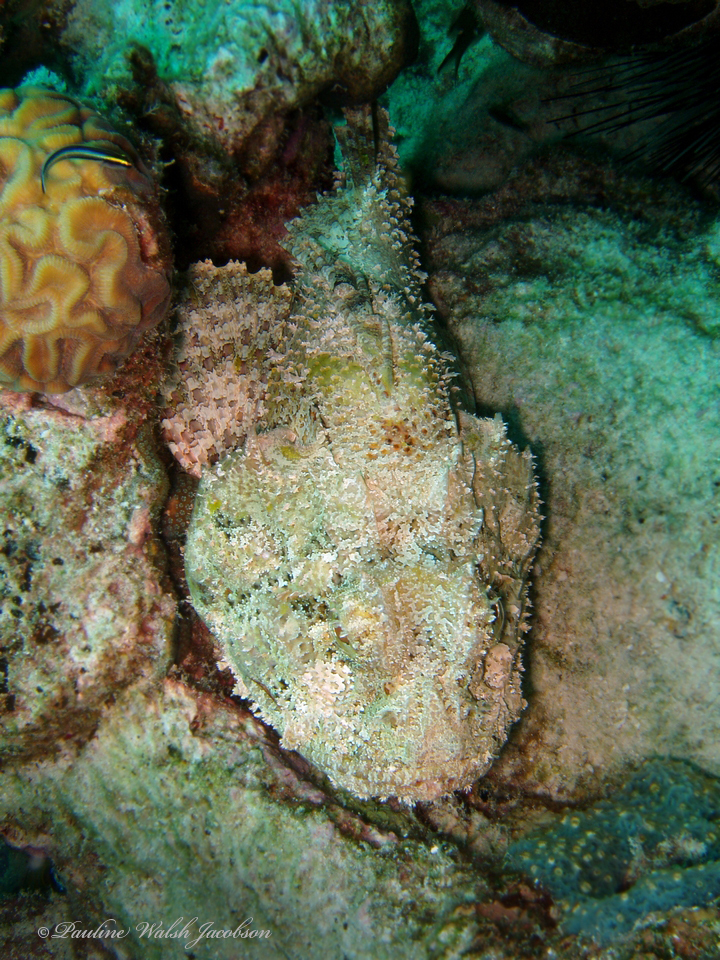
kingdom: Animalia
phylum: Chordata
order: Scorpaeniformes
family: Scorpaenidae
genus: Scorpaena
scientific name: Scorpaena plumieri
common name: Spotted scorpionfish
